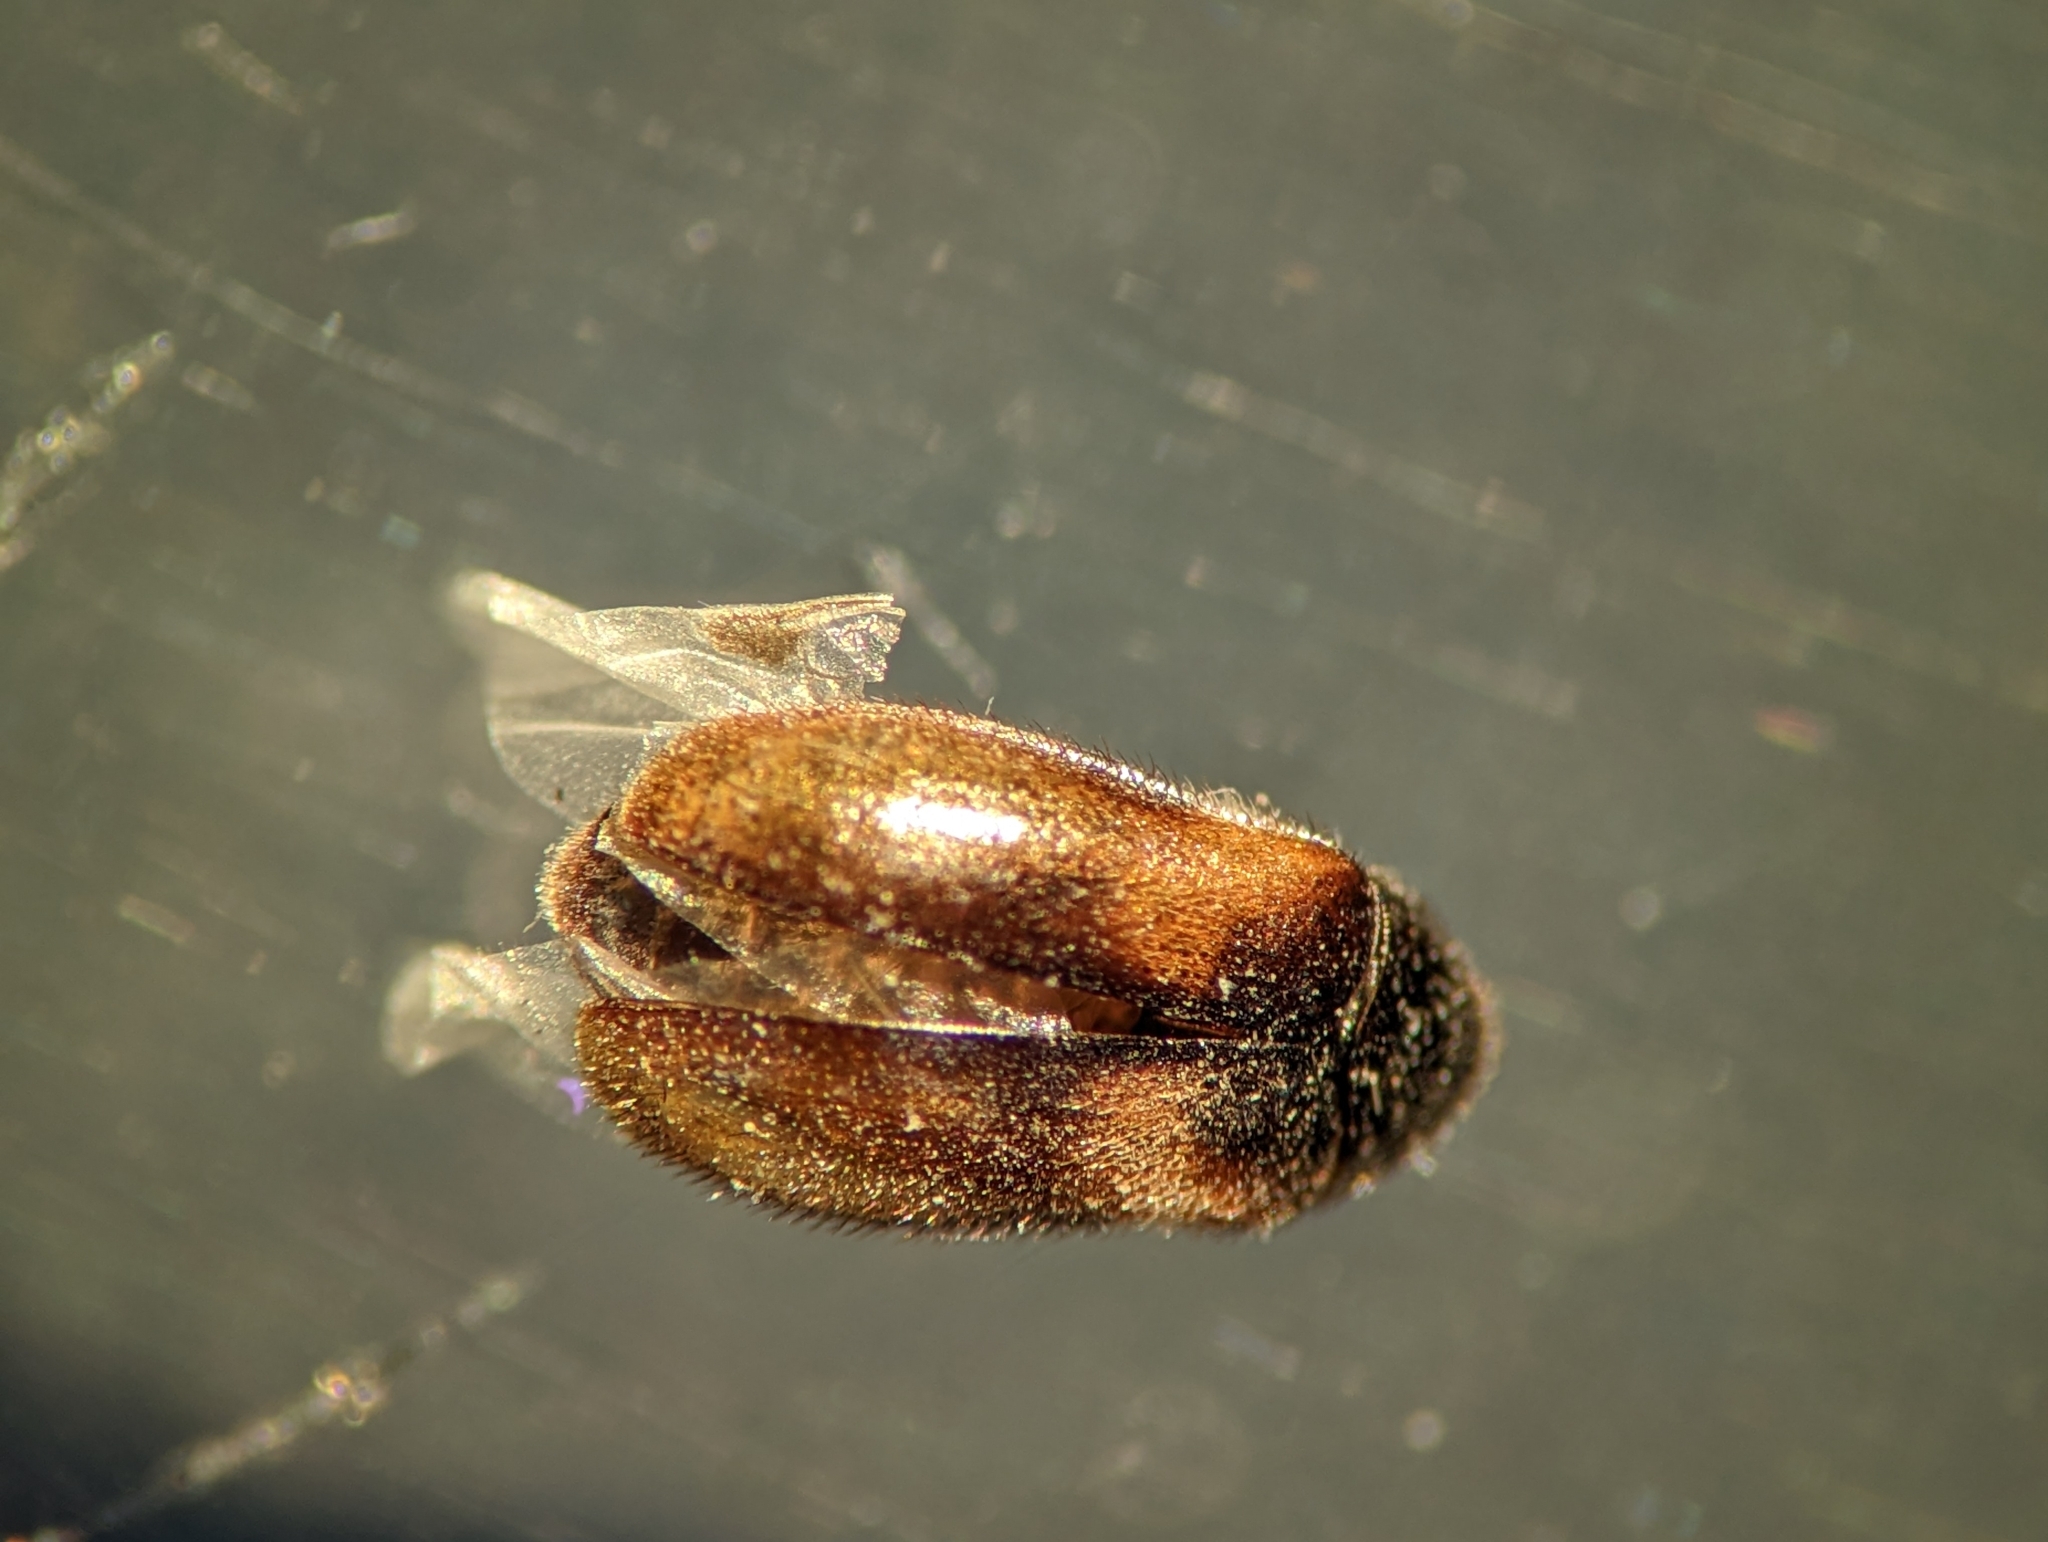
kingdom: Animalia
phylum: Arthropoda
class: Insecta
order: Coleoptera
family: Dermestidae
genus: Reesa
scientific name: Reesa vespulae
